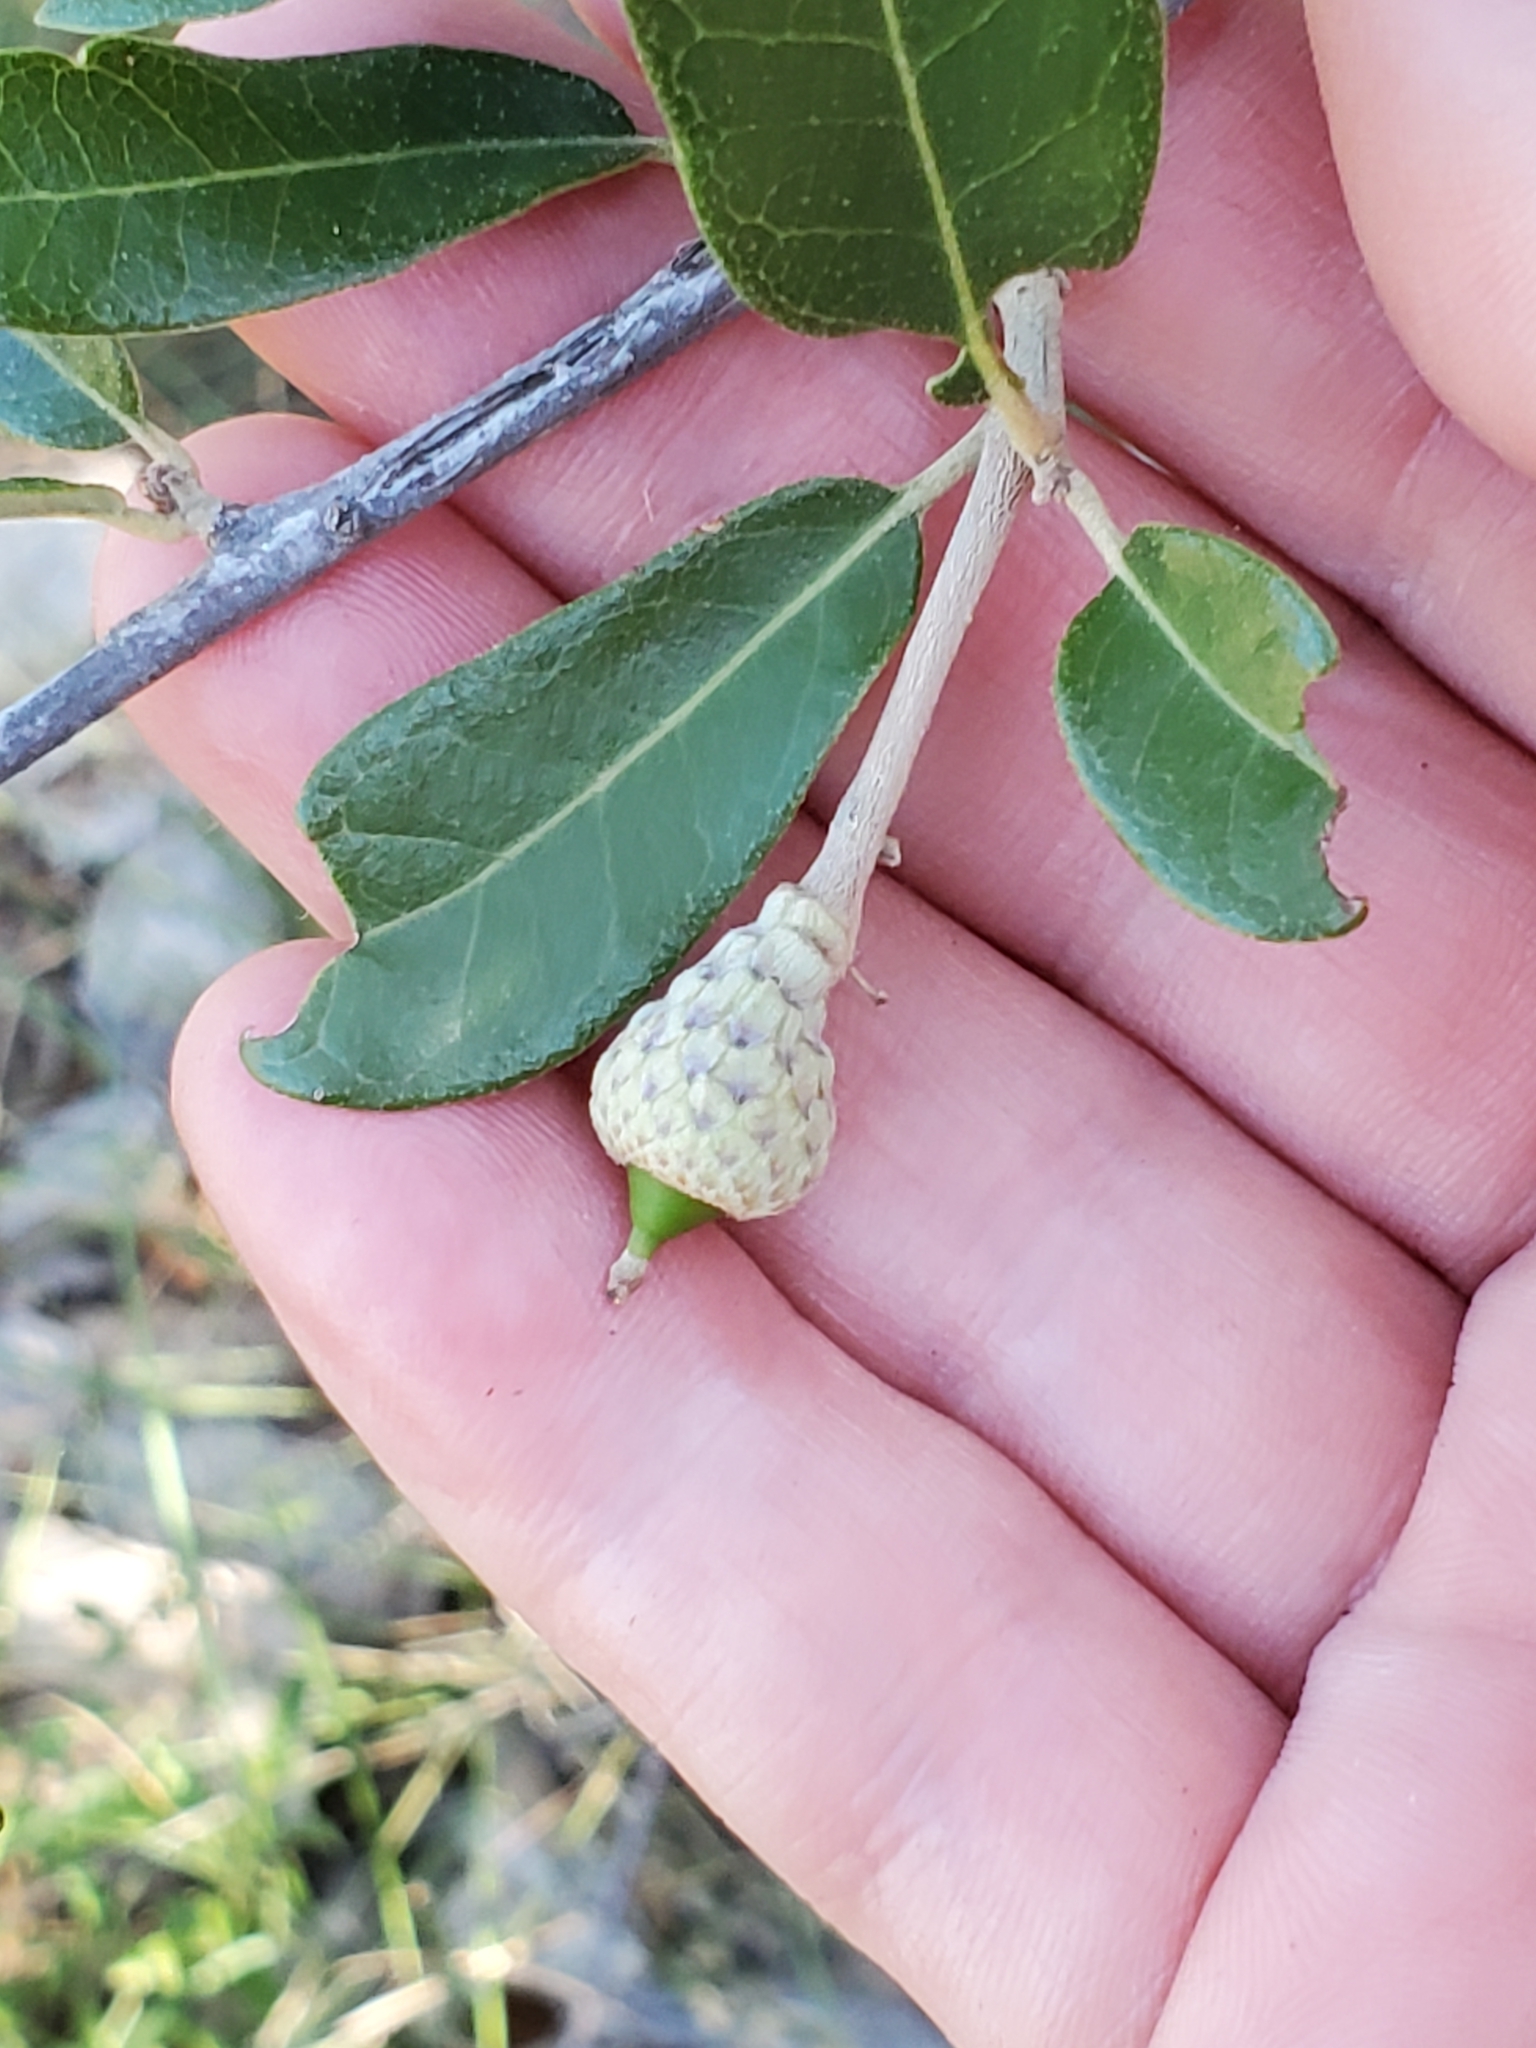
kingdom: Plantae
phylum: Tracheophyta
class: Magnoliopsida
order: Fagales
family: Fagaceae
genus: Quercus
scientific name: Quercus fusiformis
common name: Texas live oak
